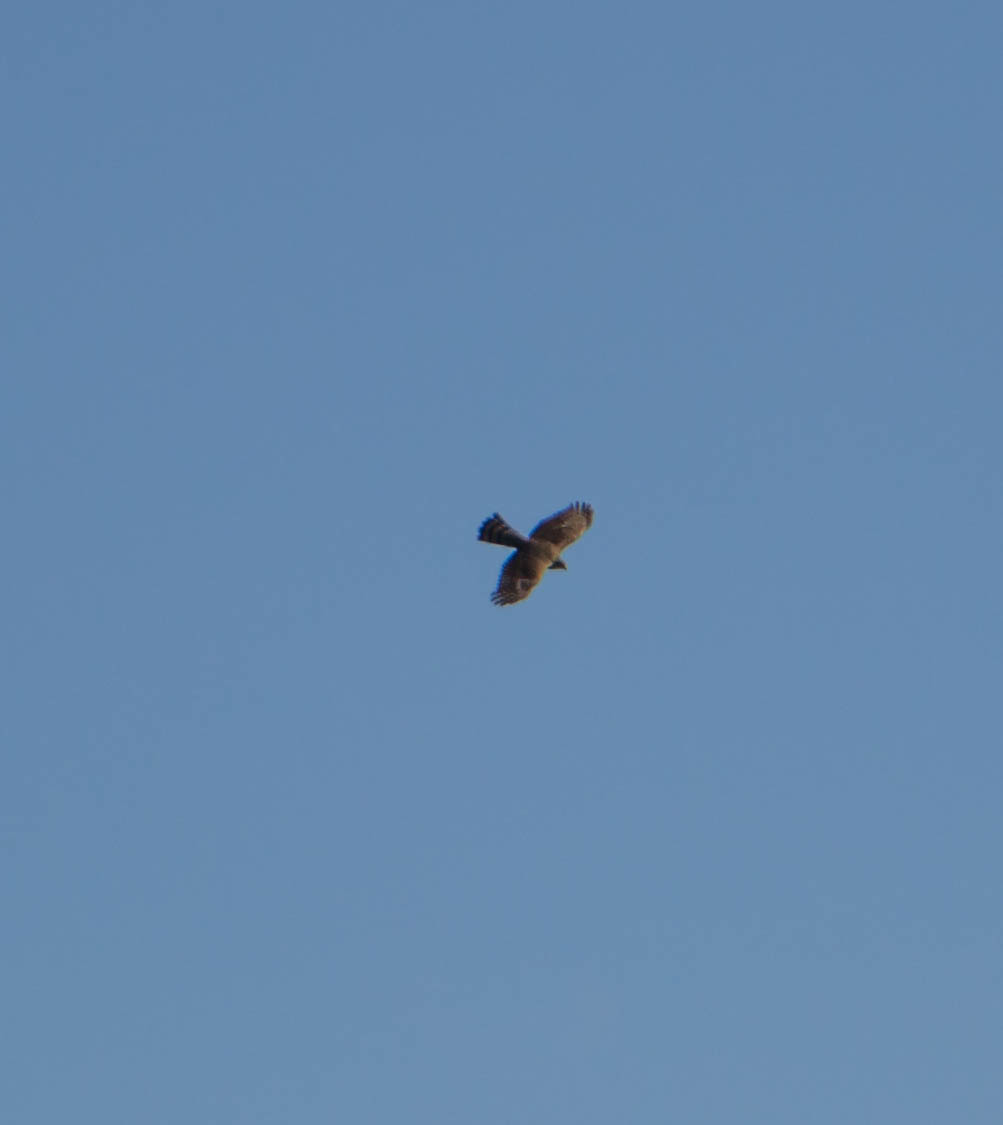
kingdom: Animalia
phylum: Chordata
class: Aves
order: Accipitriformes
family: Accipitridae
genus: Accipiter
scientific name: Accipiter cooperii
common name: Cooper's hawk
